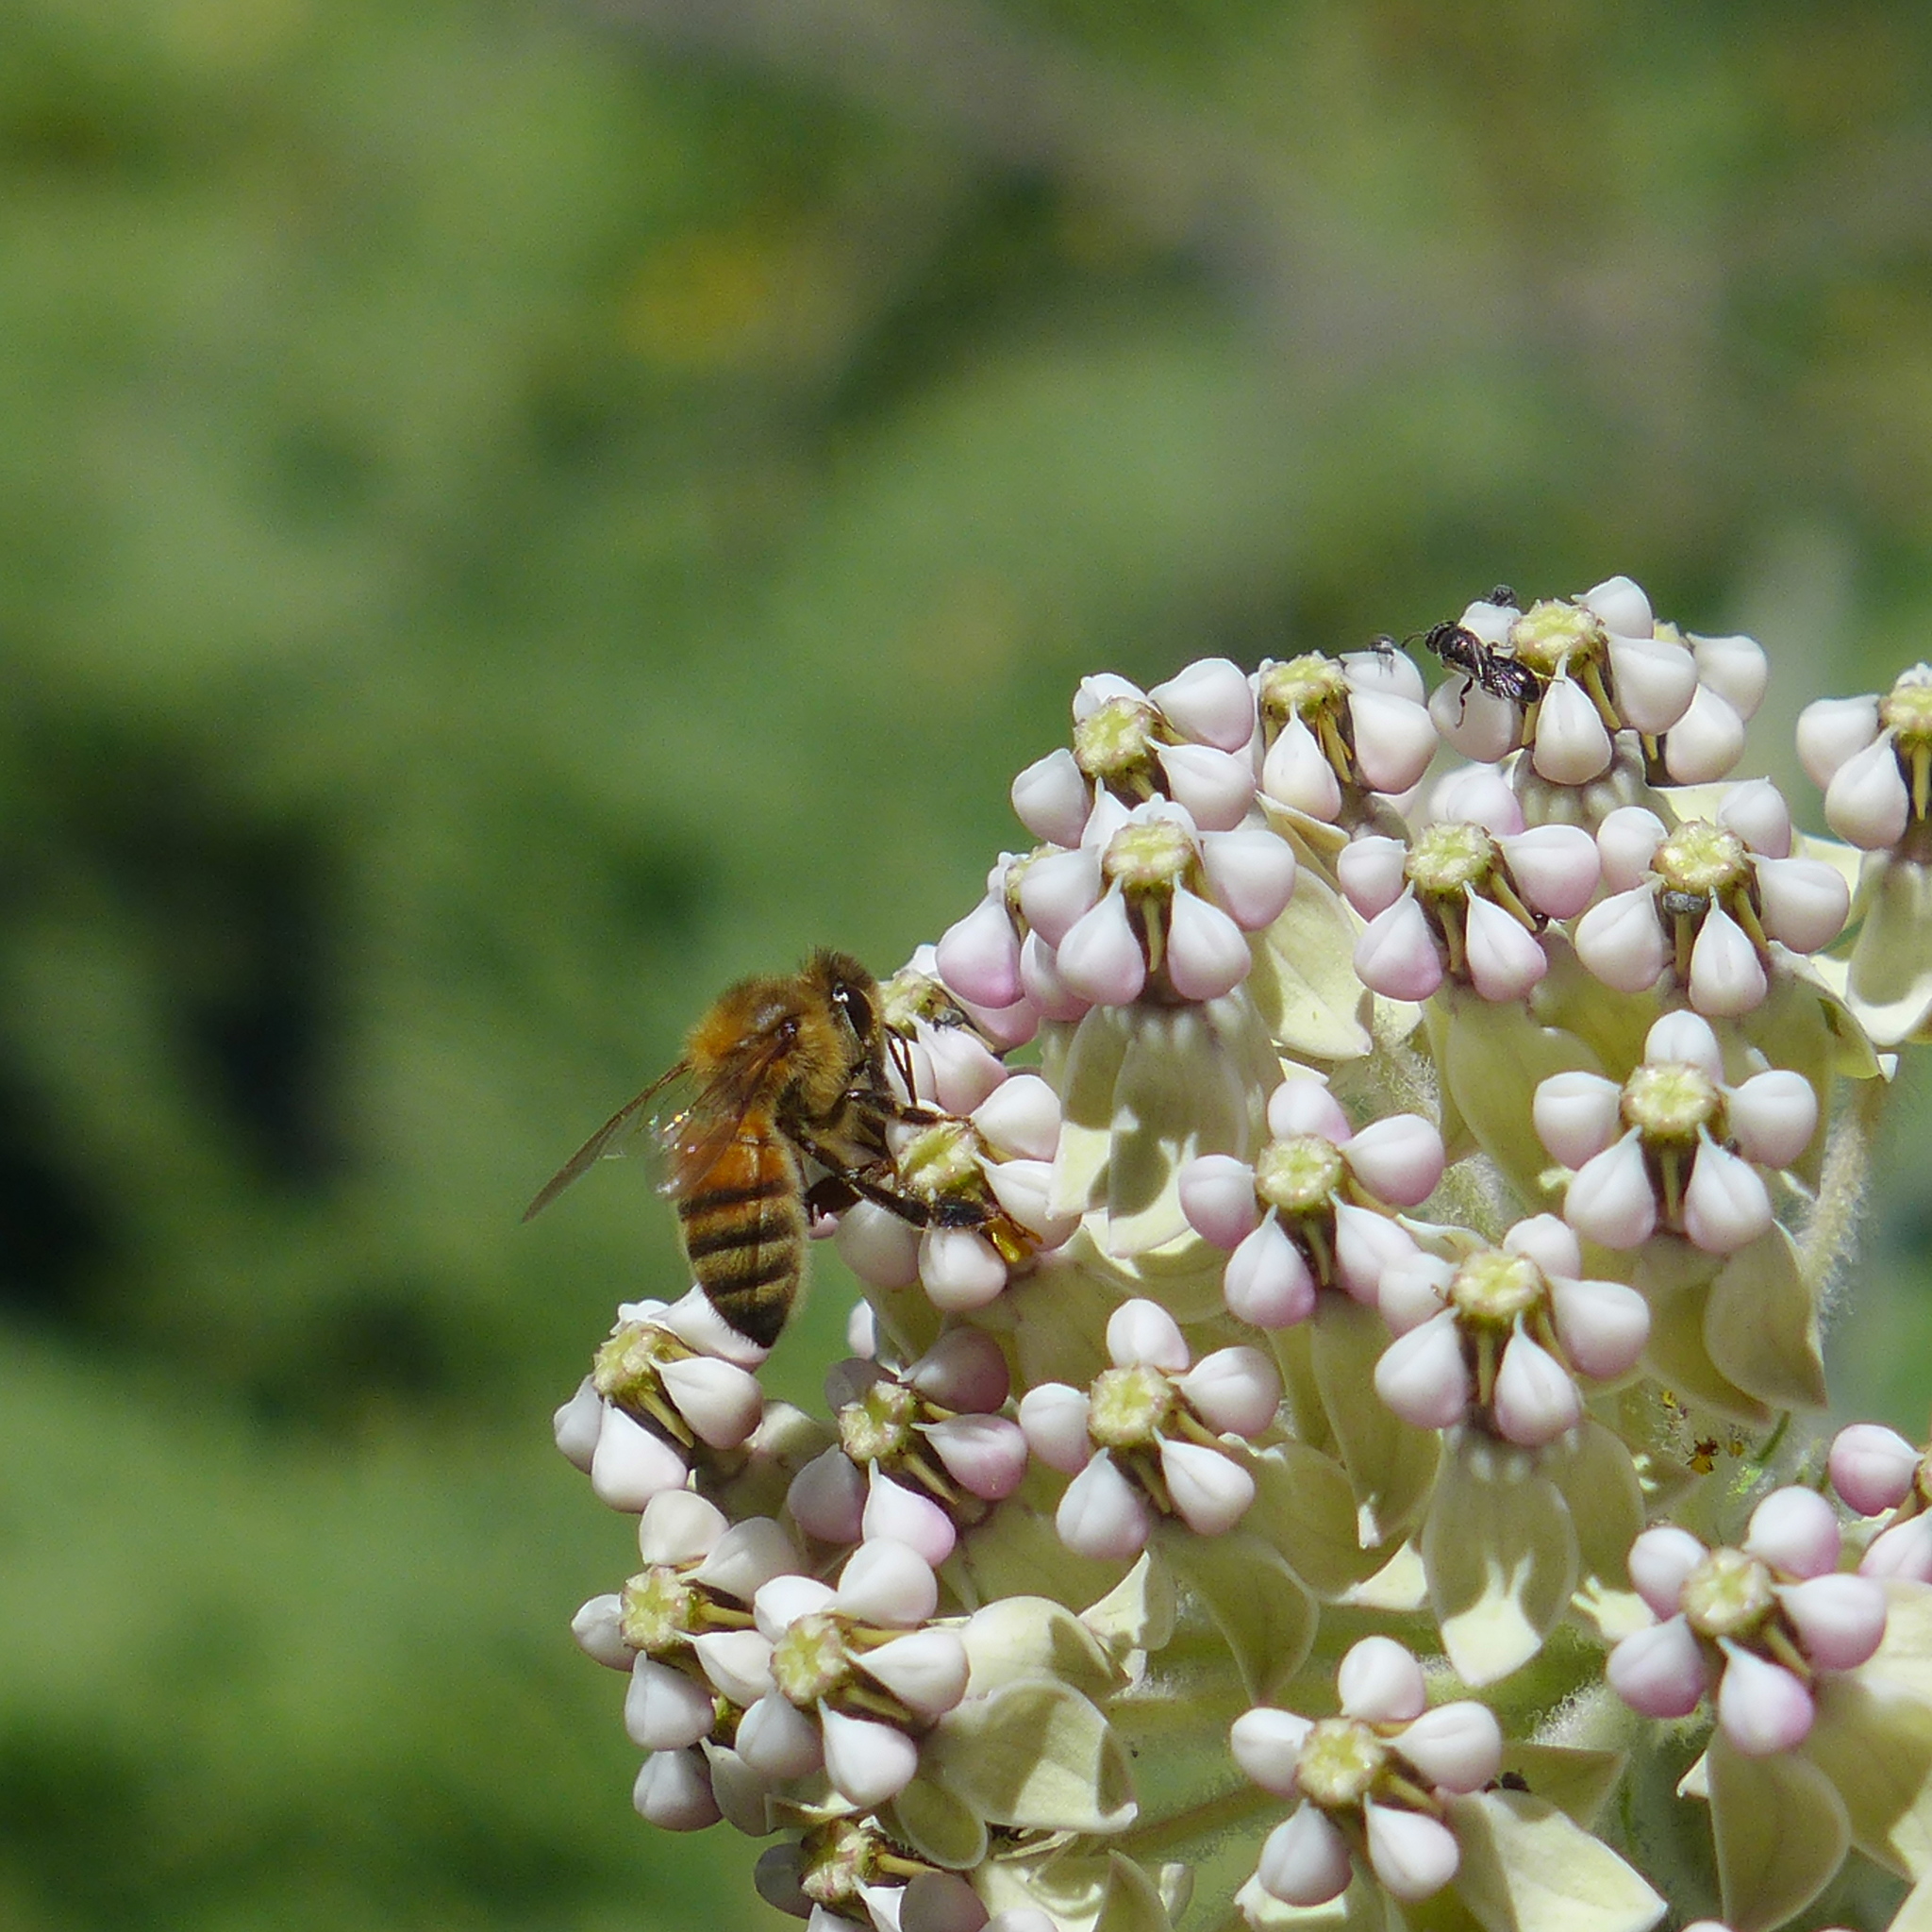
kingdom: Plantae
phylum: Tracheophyta
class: Magnoliopsida
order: Gentianales
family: Apocynaceae
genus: Asclepias
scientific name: Asclepias eriocarpa
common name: Indian milkweed
